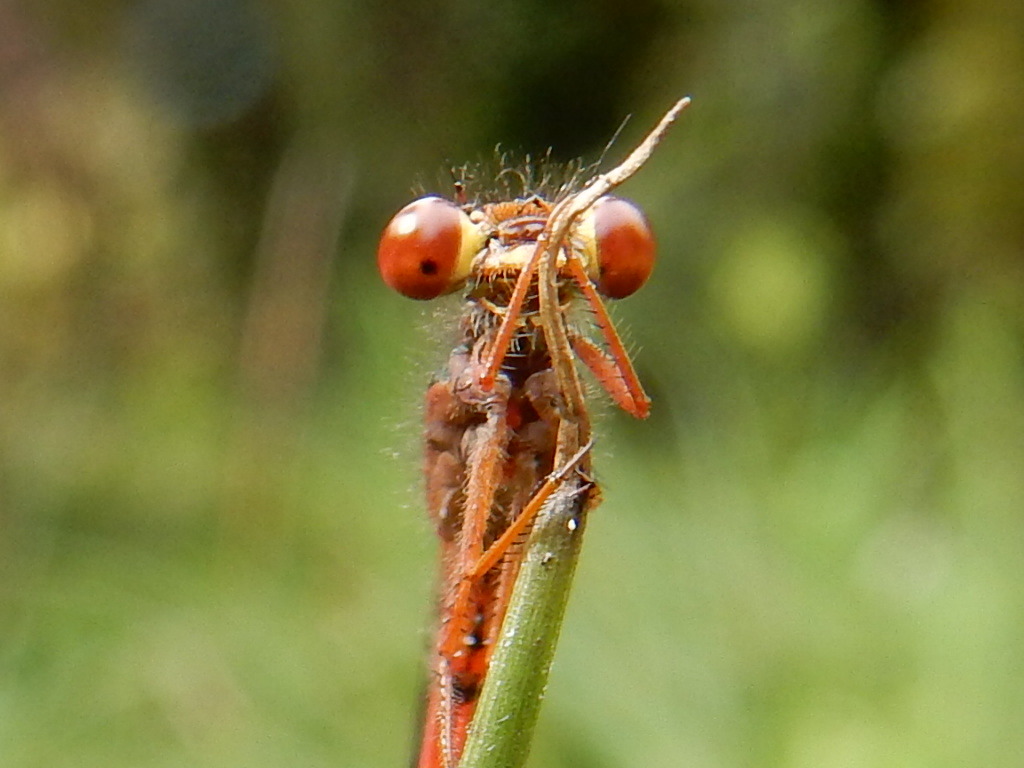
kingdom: Animalia
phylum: Arthropoda
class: Insecta
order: Odonata
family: Coenagrionidae
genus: Xanthocnemis
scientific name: Xanthocnemis zealandica
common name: Common redcoat damselfly
